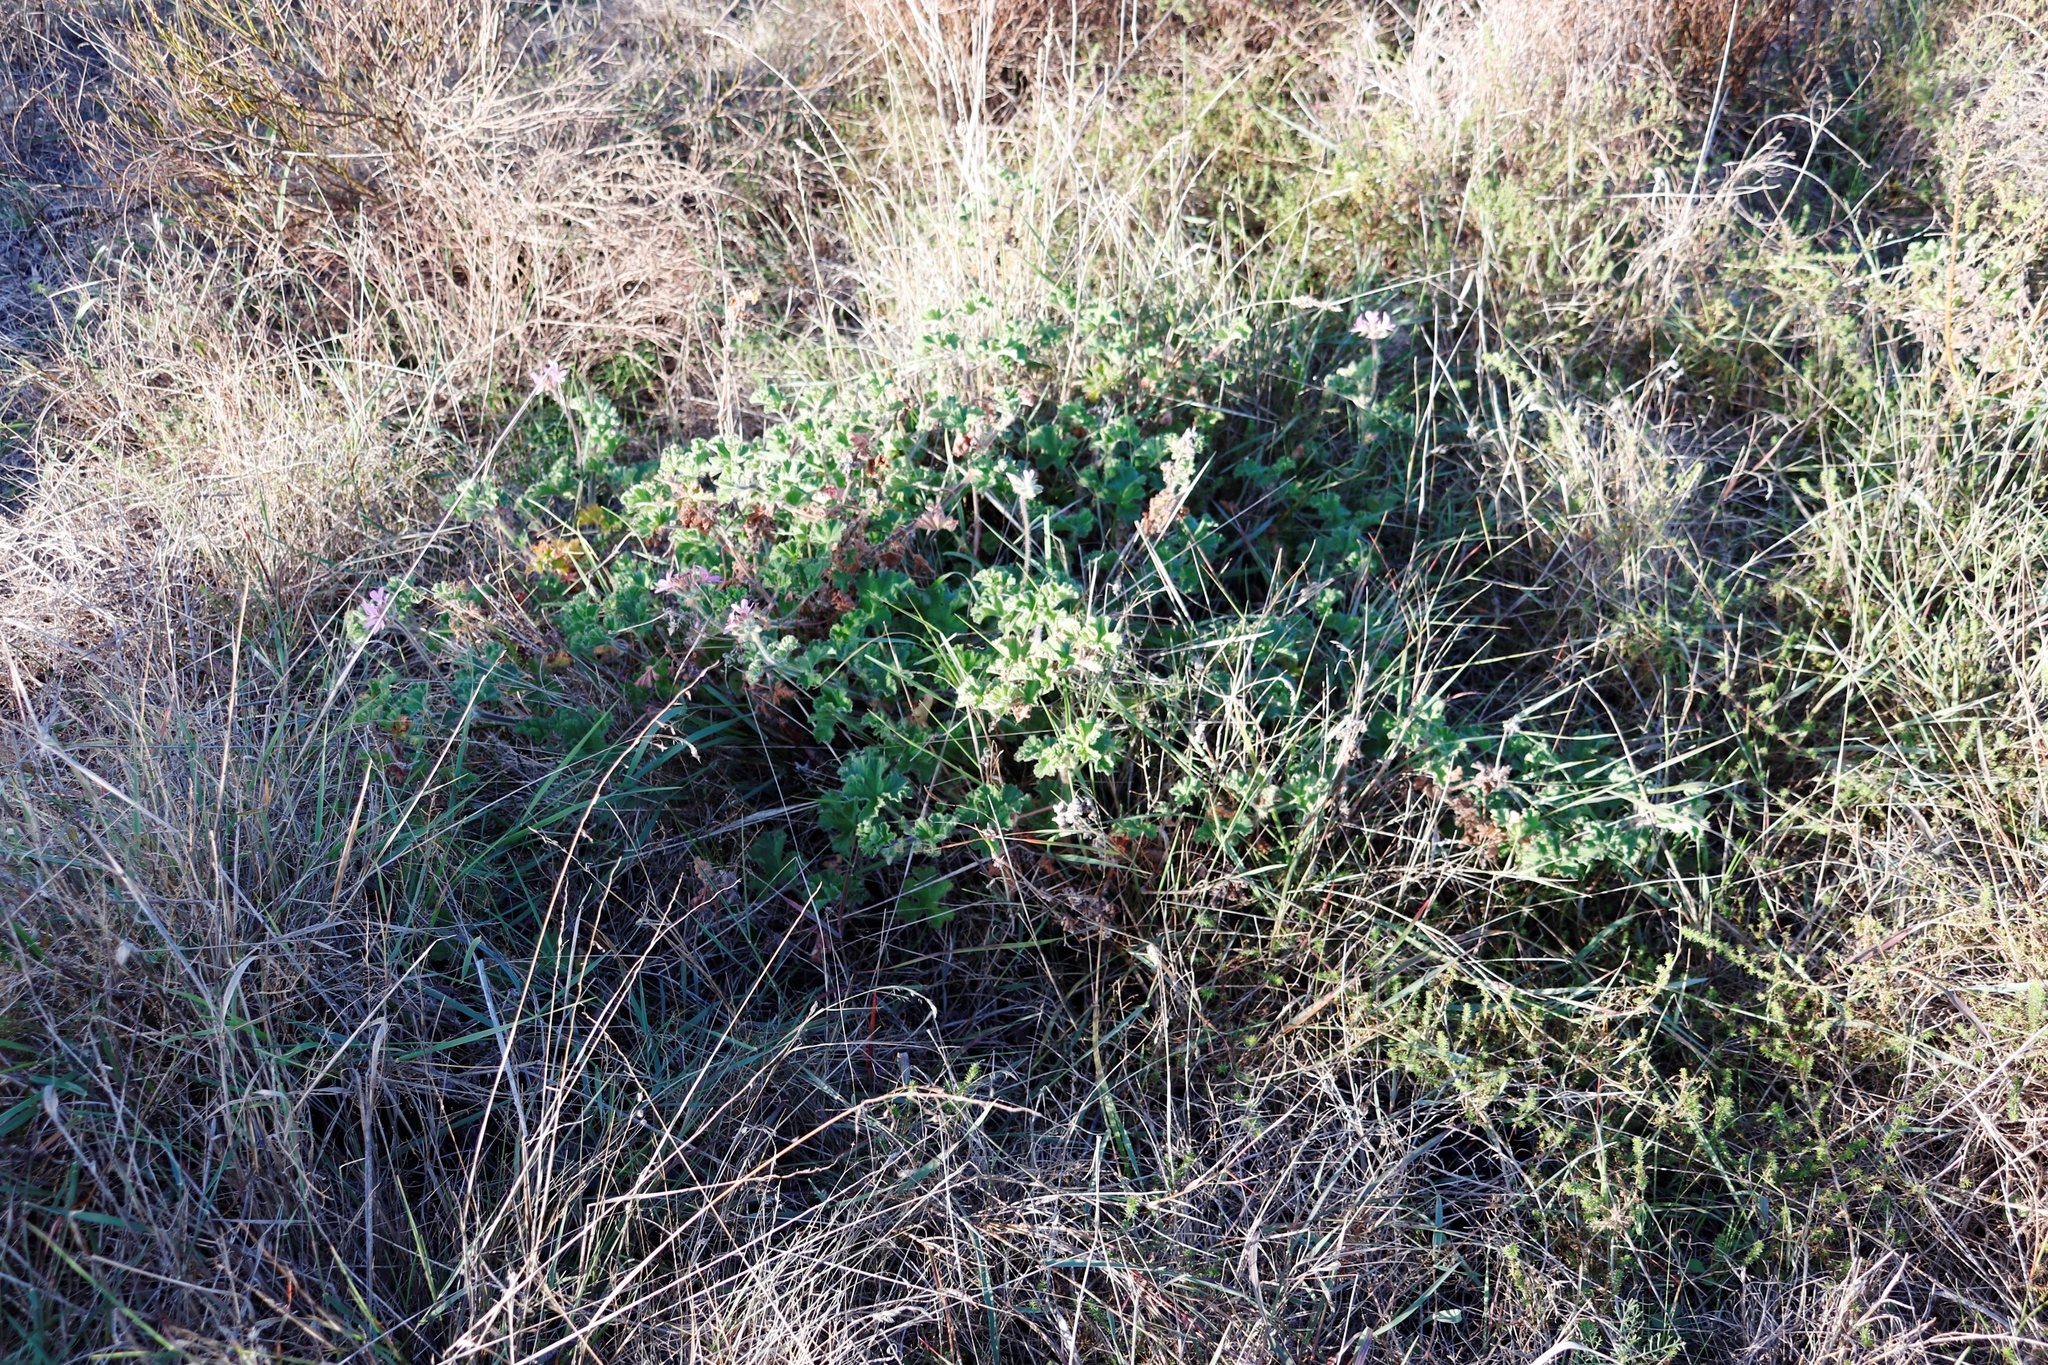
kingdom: Plantae
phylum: Tracheophyta
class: Magnoliopsida
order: Geraniales
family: Geraniaceae
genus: Pelargonium
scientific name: Pelargonium capitatum
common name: Rose scented geranium
